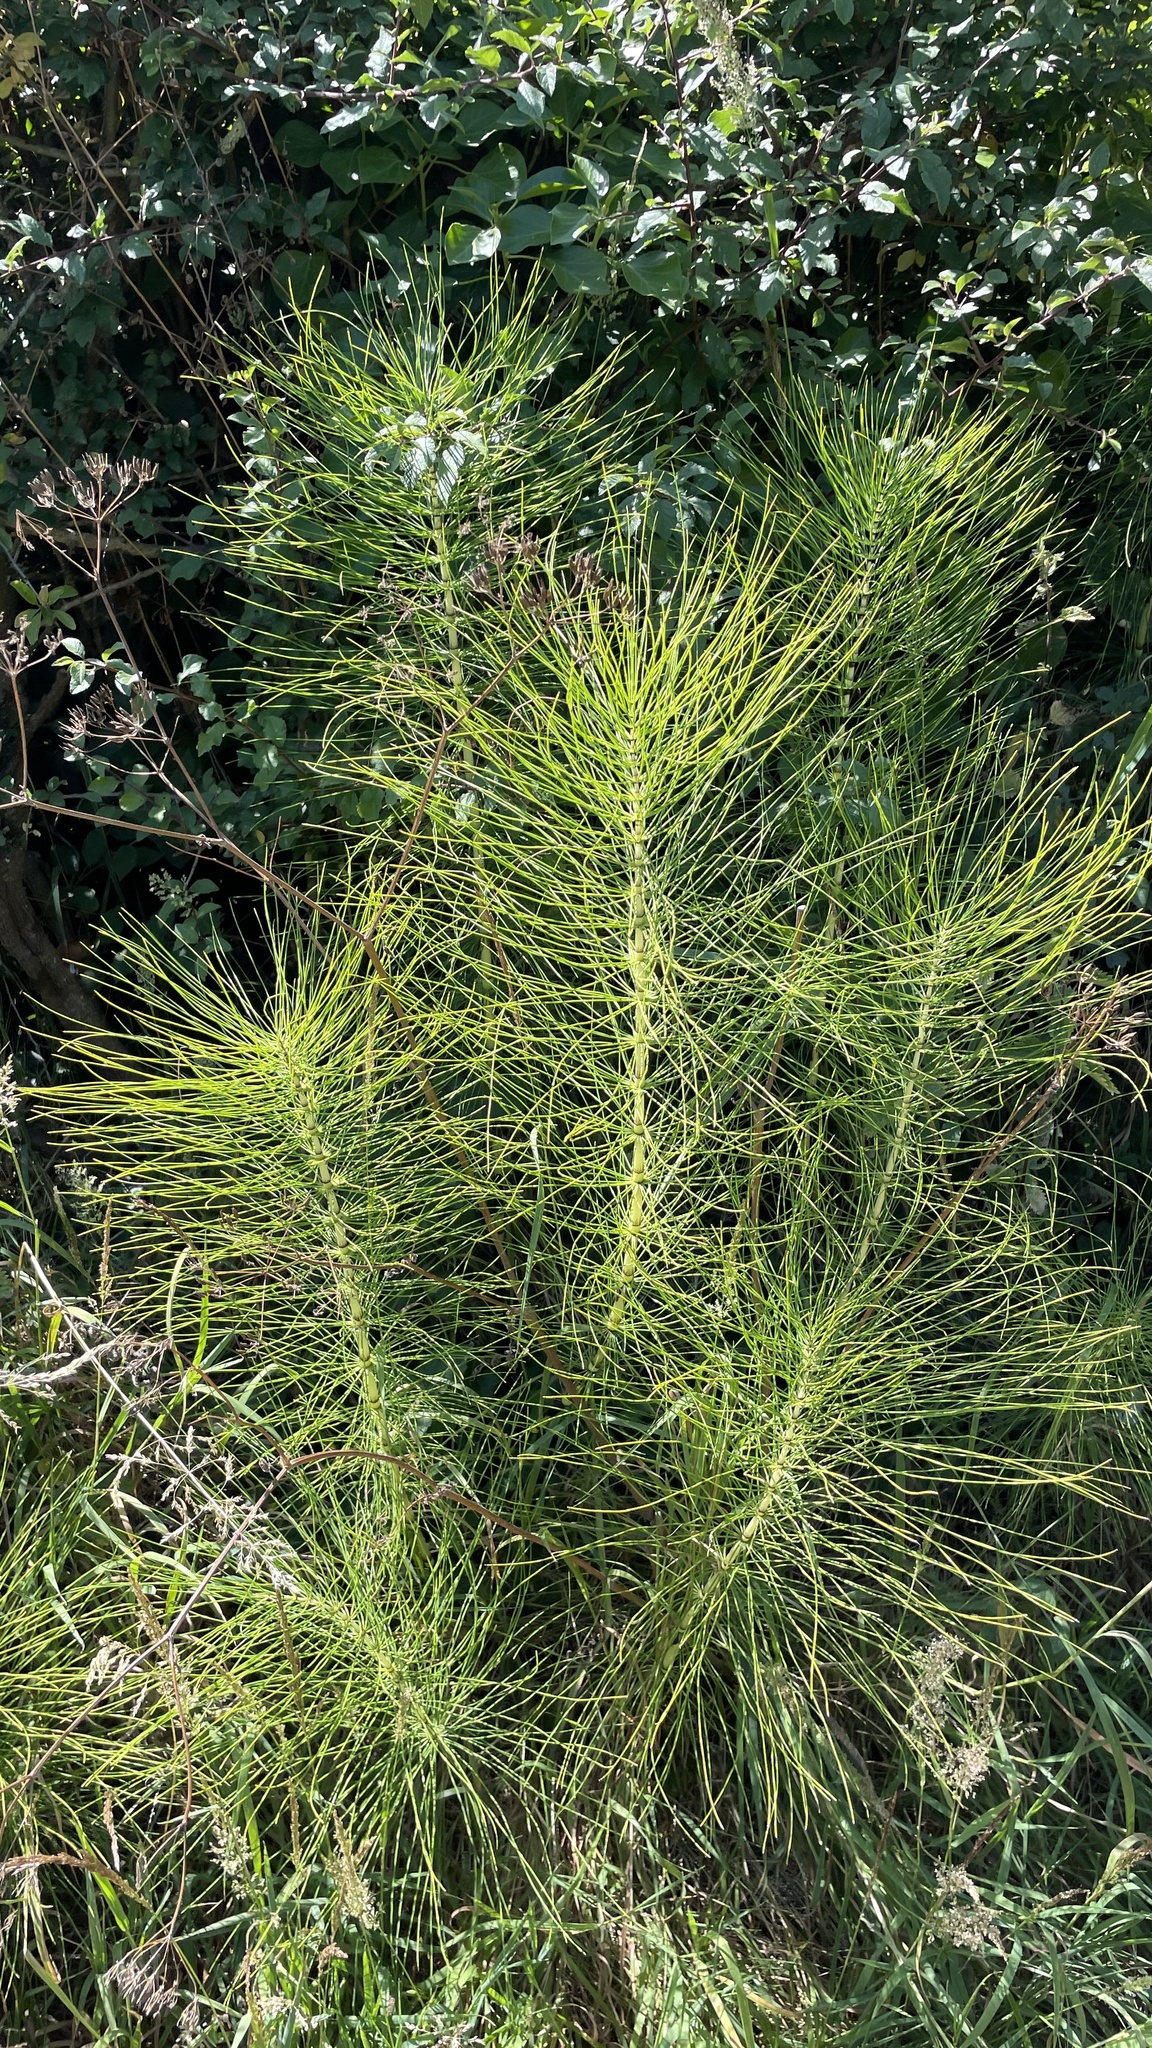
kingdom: Plantae
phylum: Tracheophyta
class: Polypodiopsida
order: Equisetales
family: Equisetaceae
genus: Equisetum
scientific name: Equisetum telmateia
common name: Great horsetail
